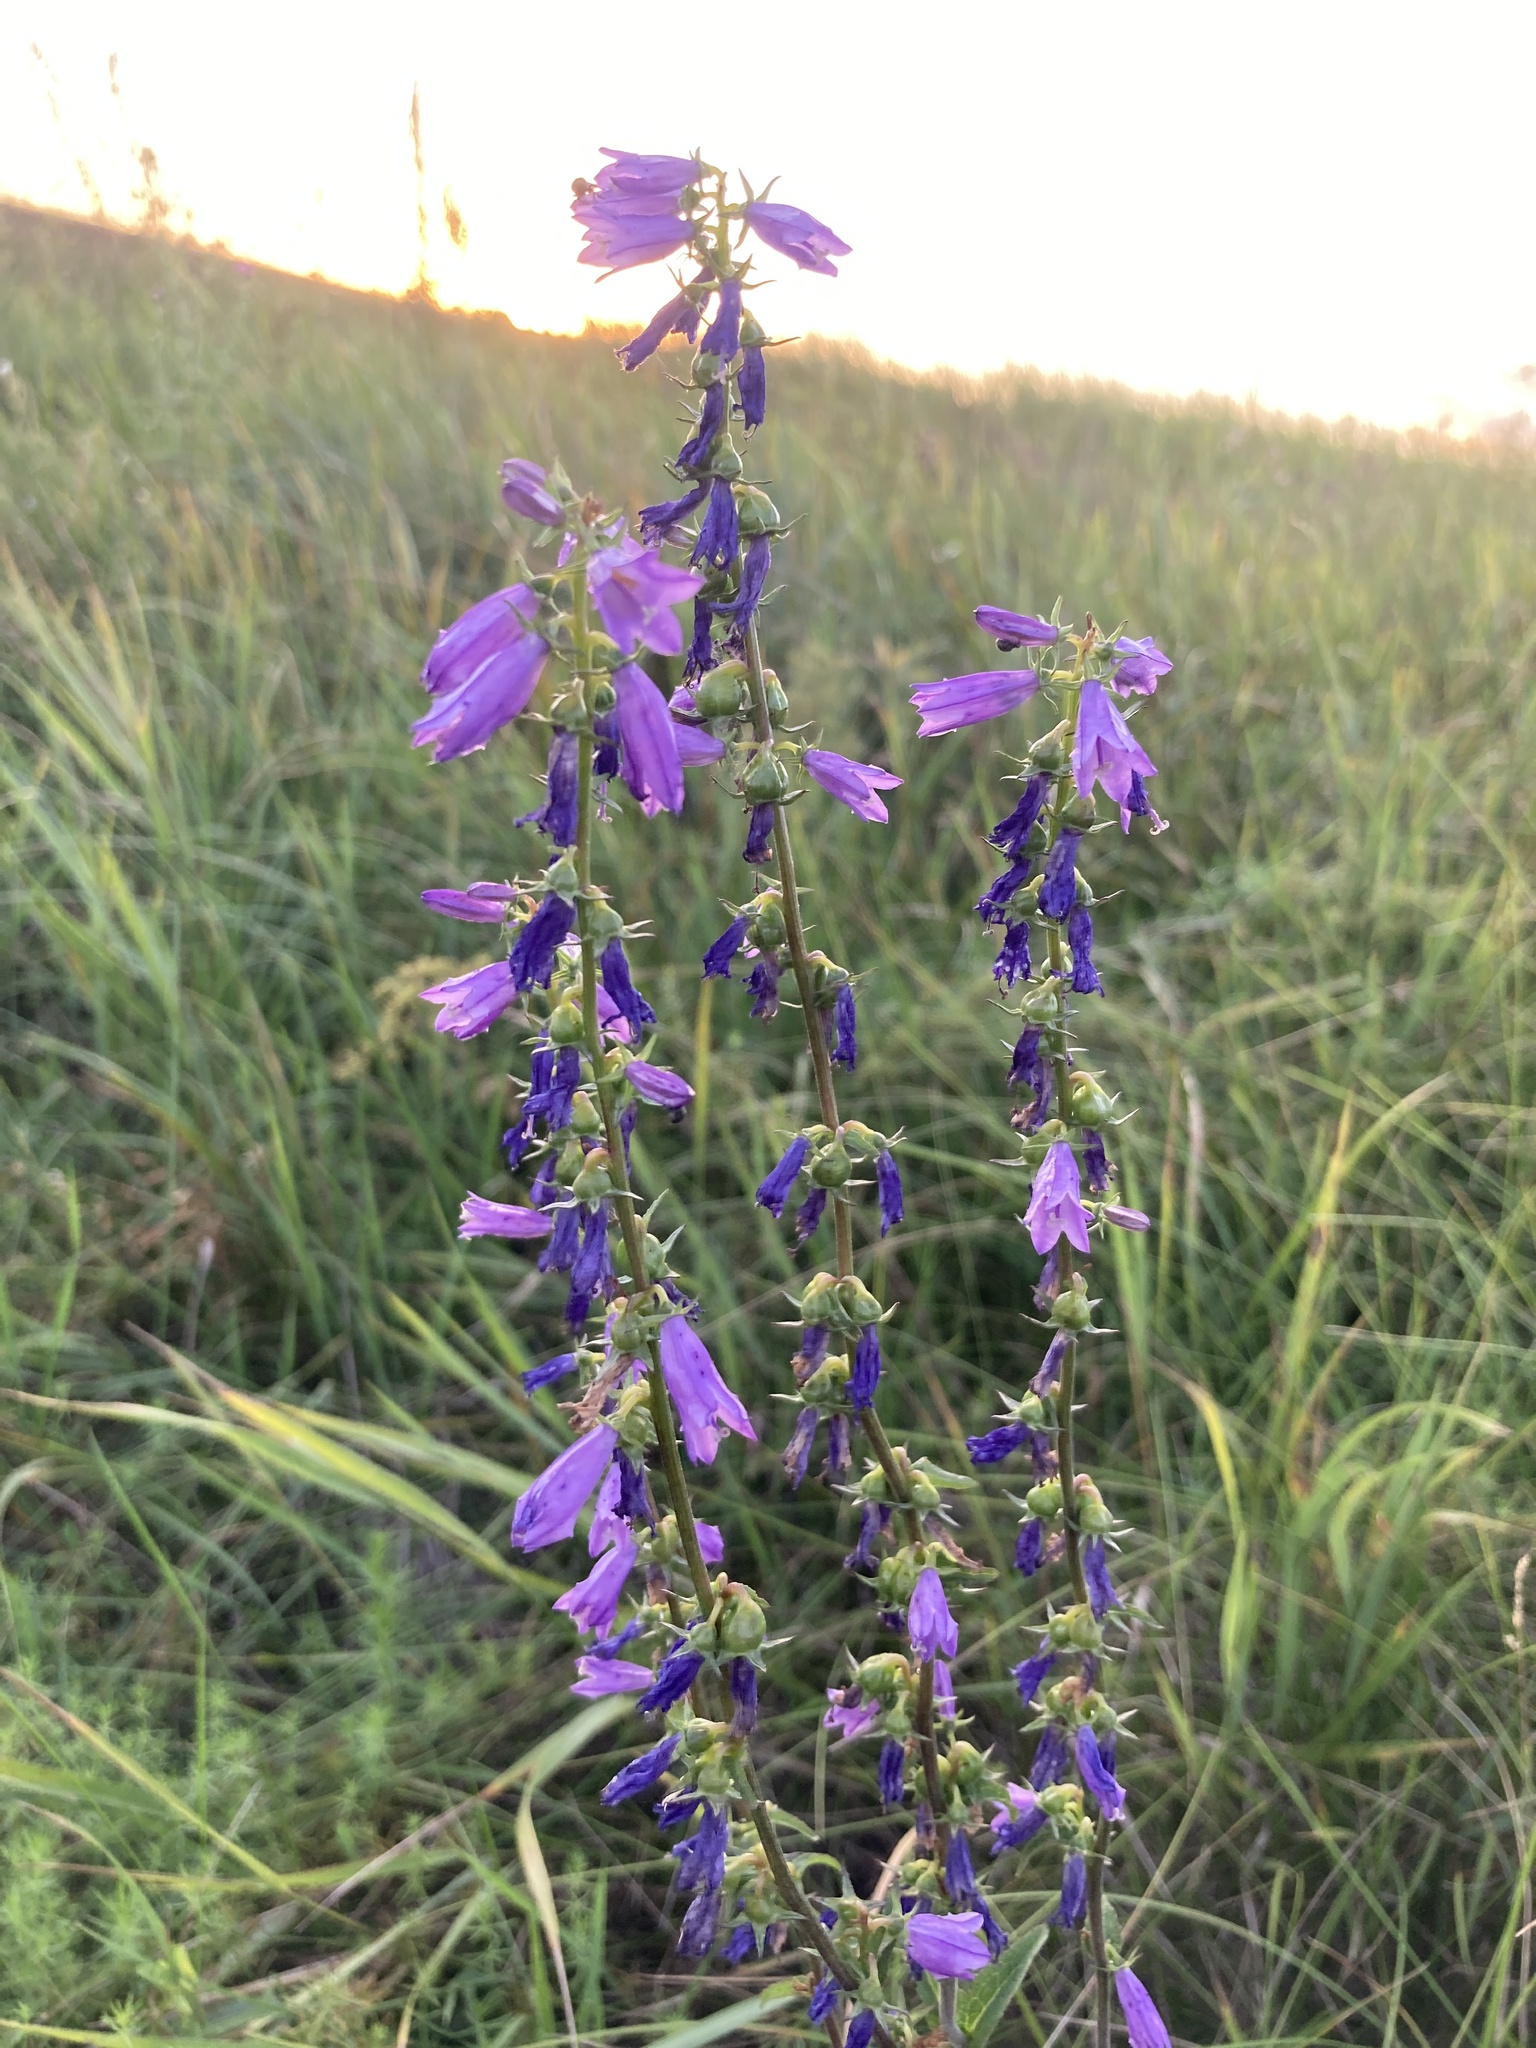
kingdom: Plantae
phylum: Tracheophyta
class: Magnoliopsida
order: Asterales
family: Campanulaceae
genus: Campanula
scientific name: Campanula bononiensis
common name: Pale bellflower
